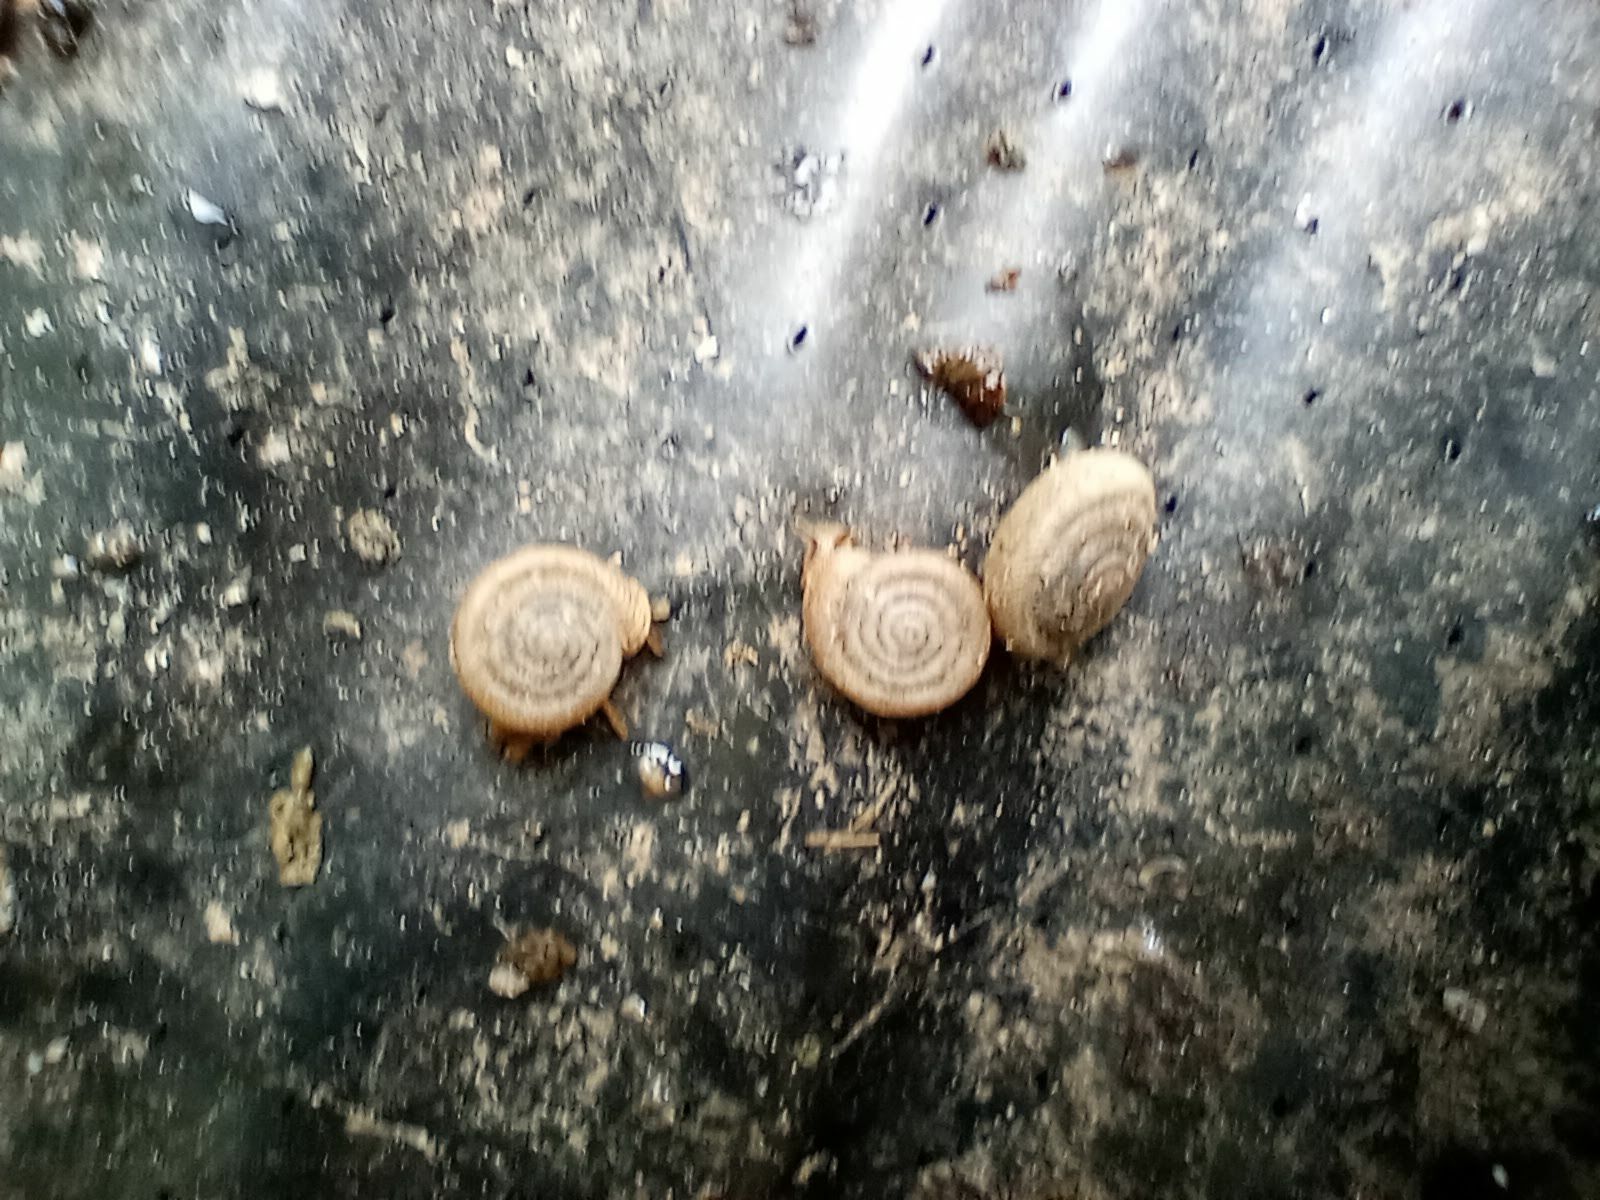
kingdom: Animalia
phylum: Mollusca
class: Gastropoda
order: Stylommatophora
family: Polygyridae
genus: Polygyra
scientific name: Polygyra cereolus
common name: Southern flatcone snail
